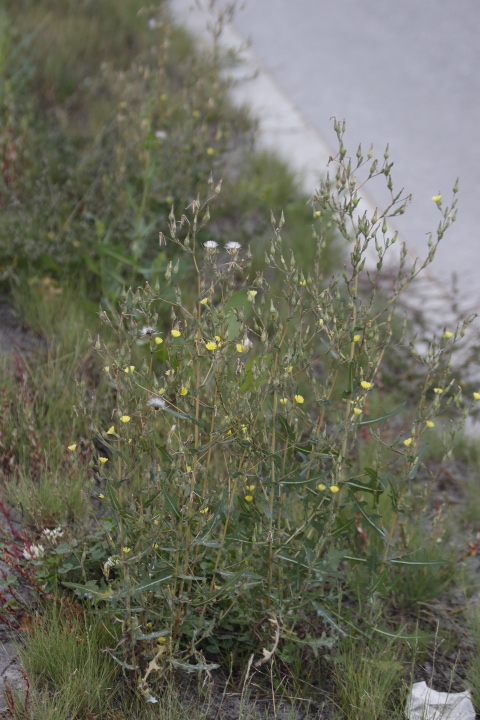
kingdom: Plantae
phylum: Tracheophyta
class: Magnoliopsida
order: Asterales
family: Asteraceae
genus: Lactuca
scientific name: Lactuca serriola
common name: Prickly lettuce
